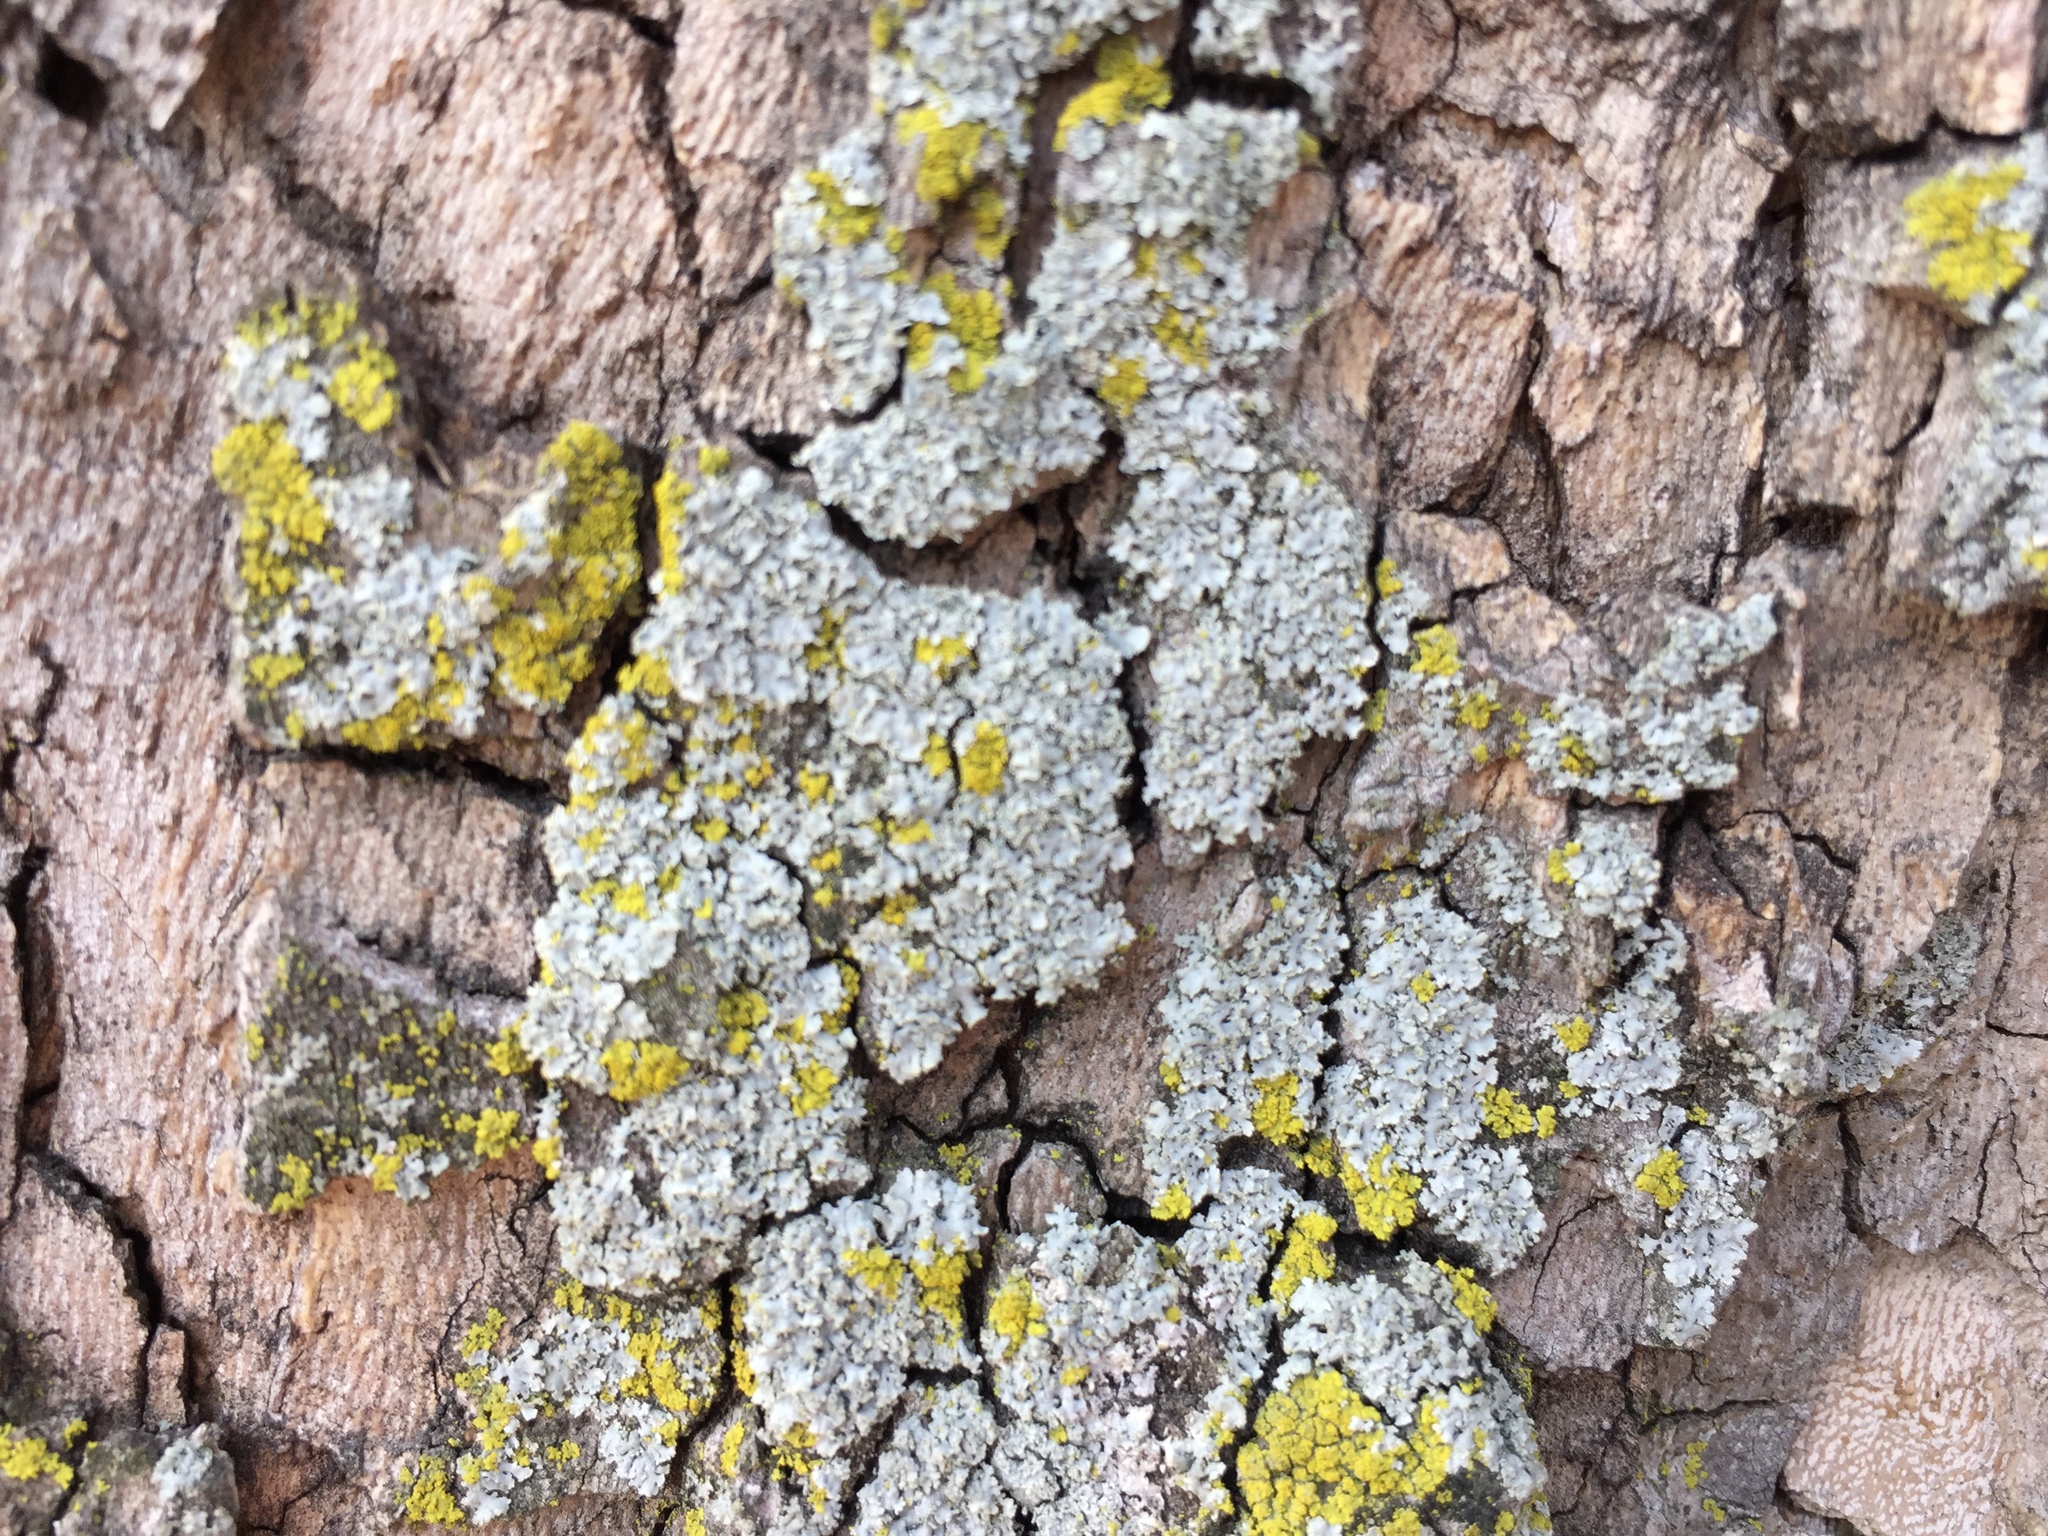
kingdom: Fungi
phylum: Ascomycota
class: Lecanoromycetes
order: Caliciales
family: Physciaceae
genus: Physcia
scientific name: Physcia millegrana
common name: Rosette lichen
